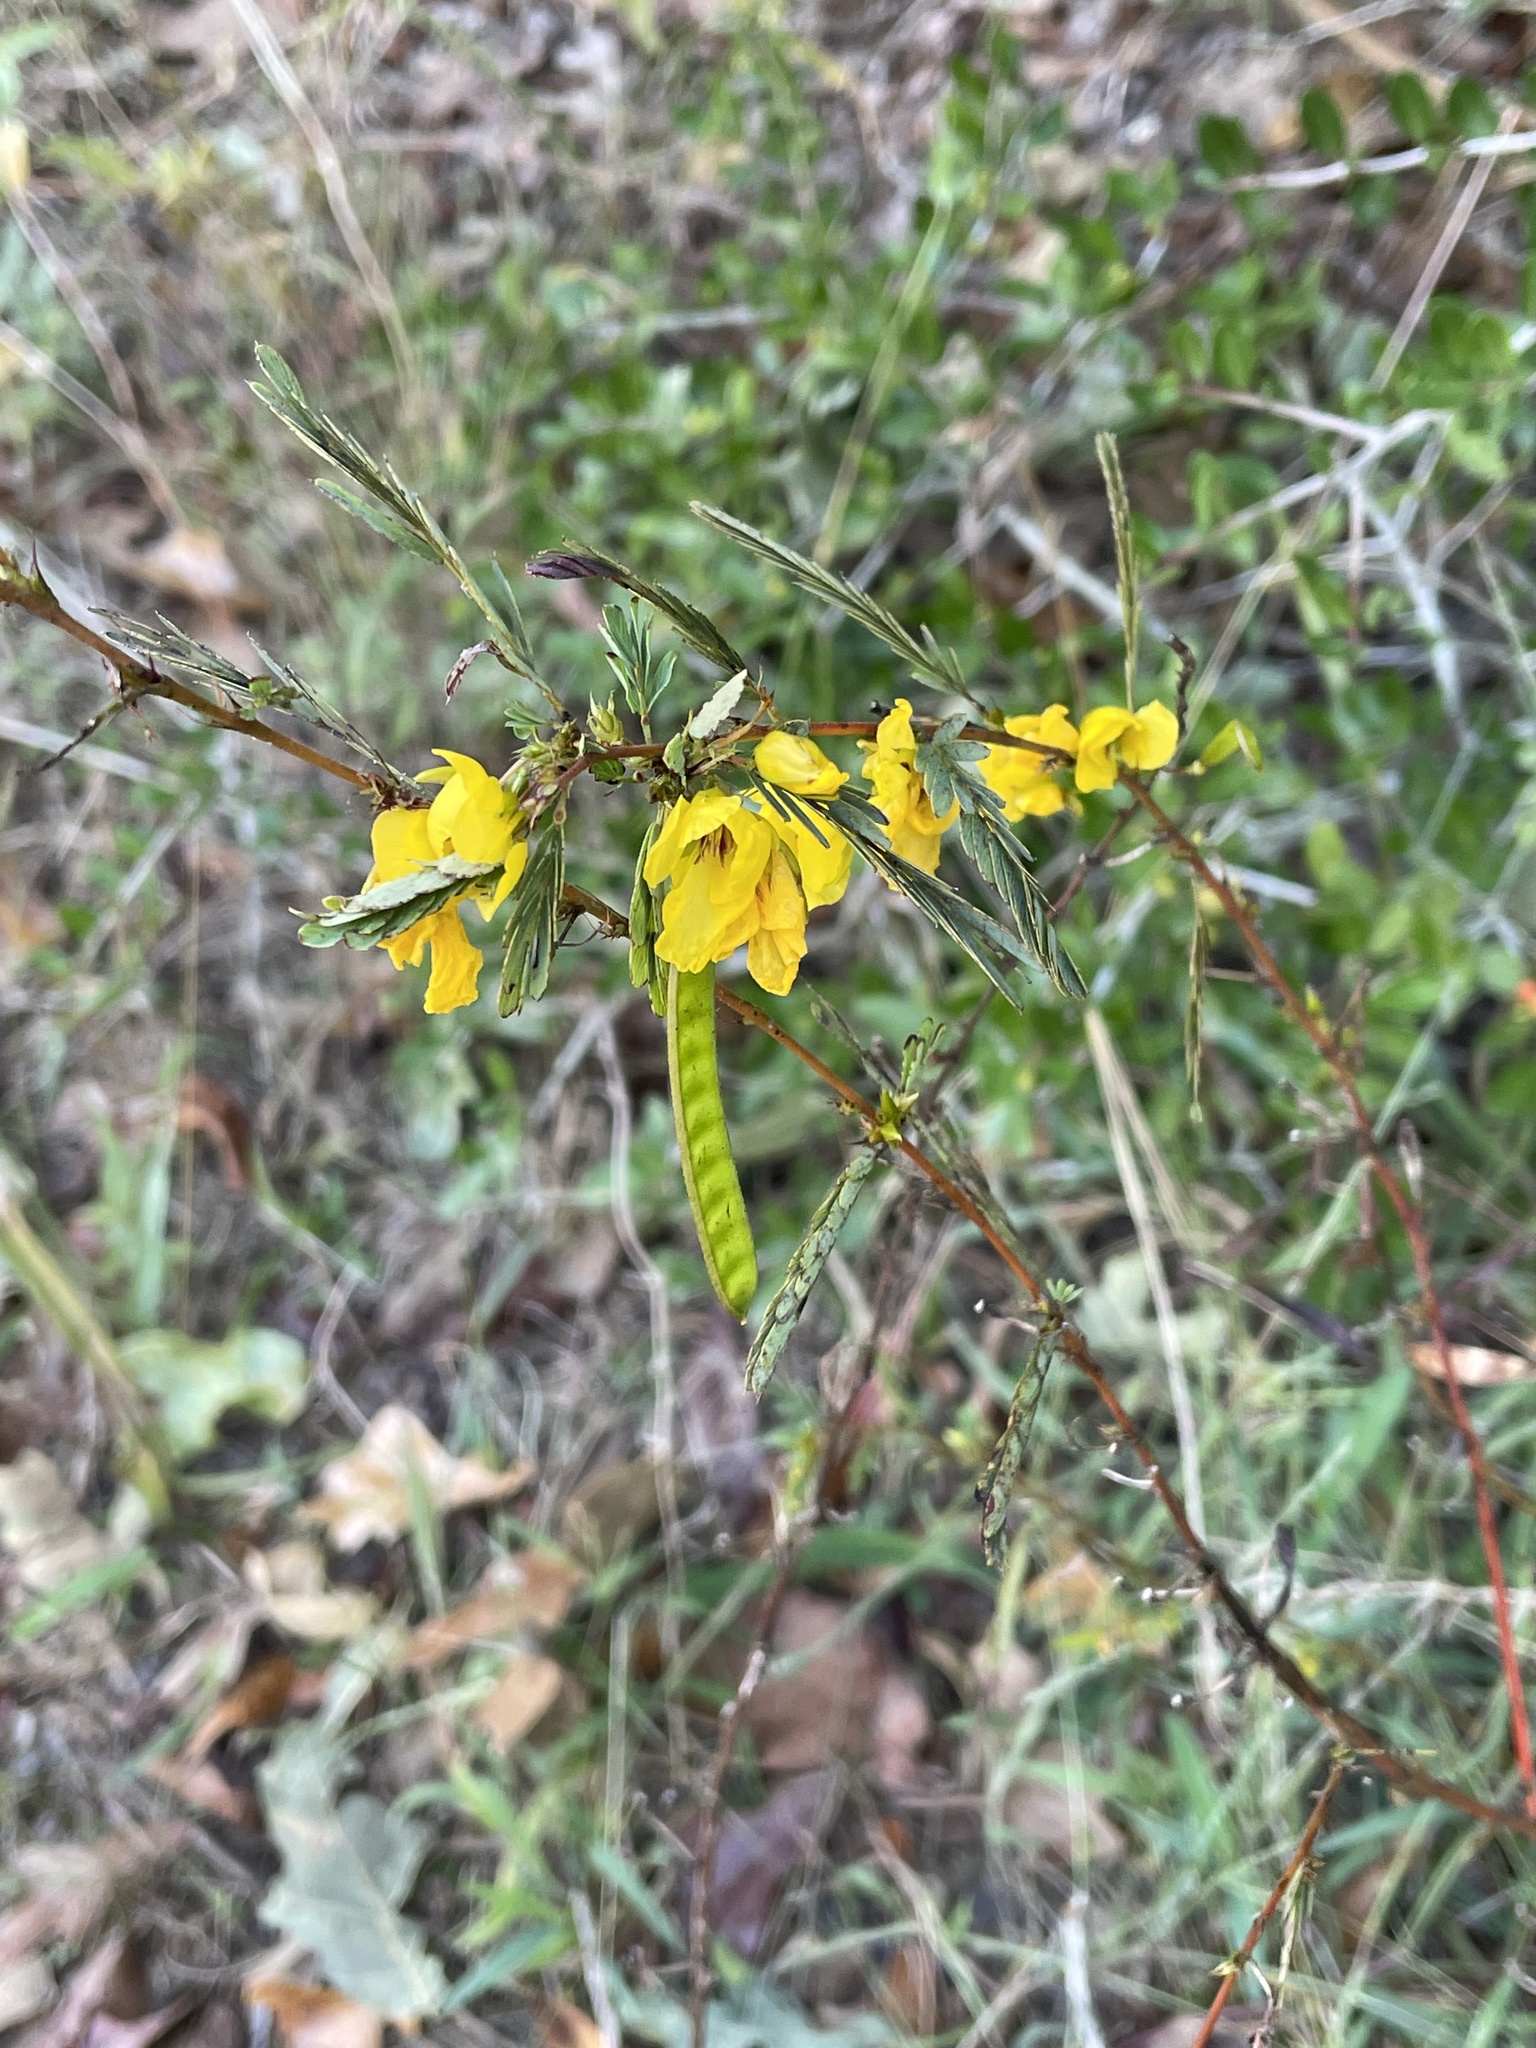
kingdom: Plantae
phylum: Tracheophyta
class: Magnoliopsida
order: Fabales
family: Fabaceae
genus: Chamaecrista
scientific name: Chamaecrista fasciculata
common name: Golden cassia
